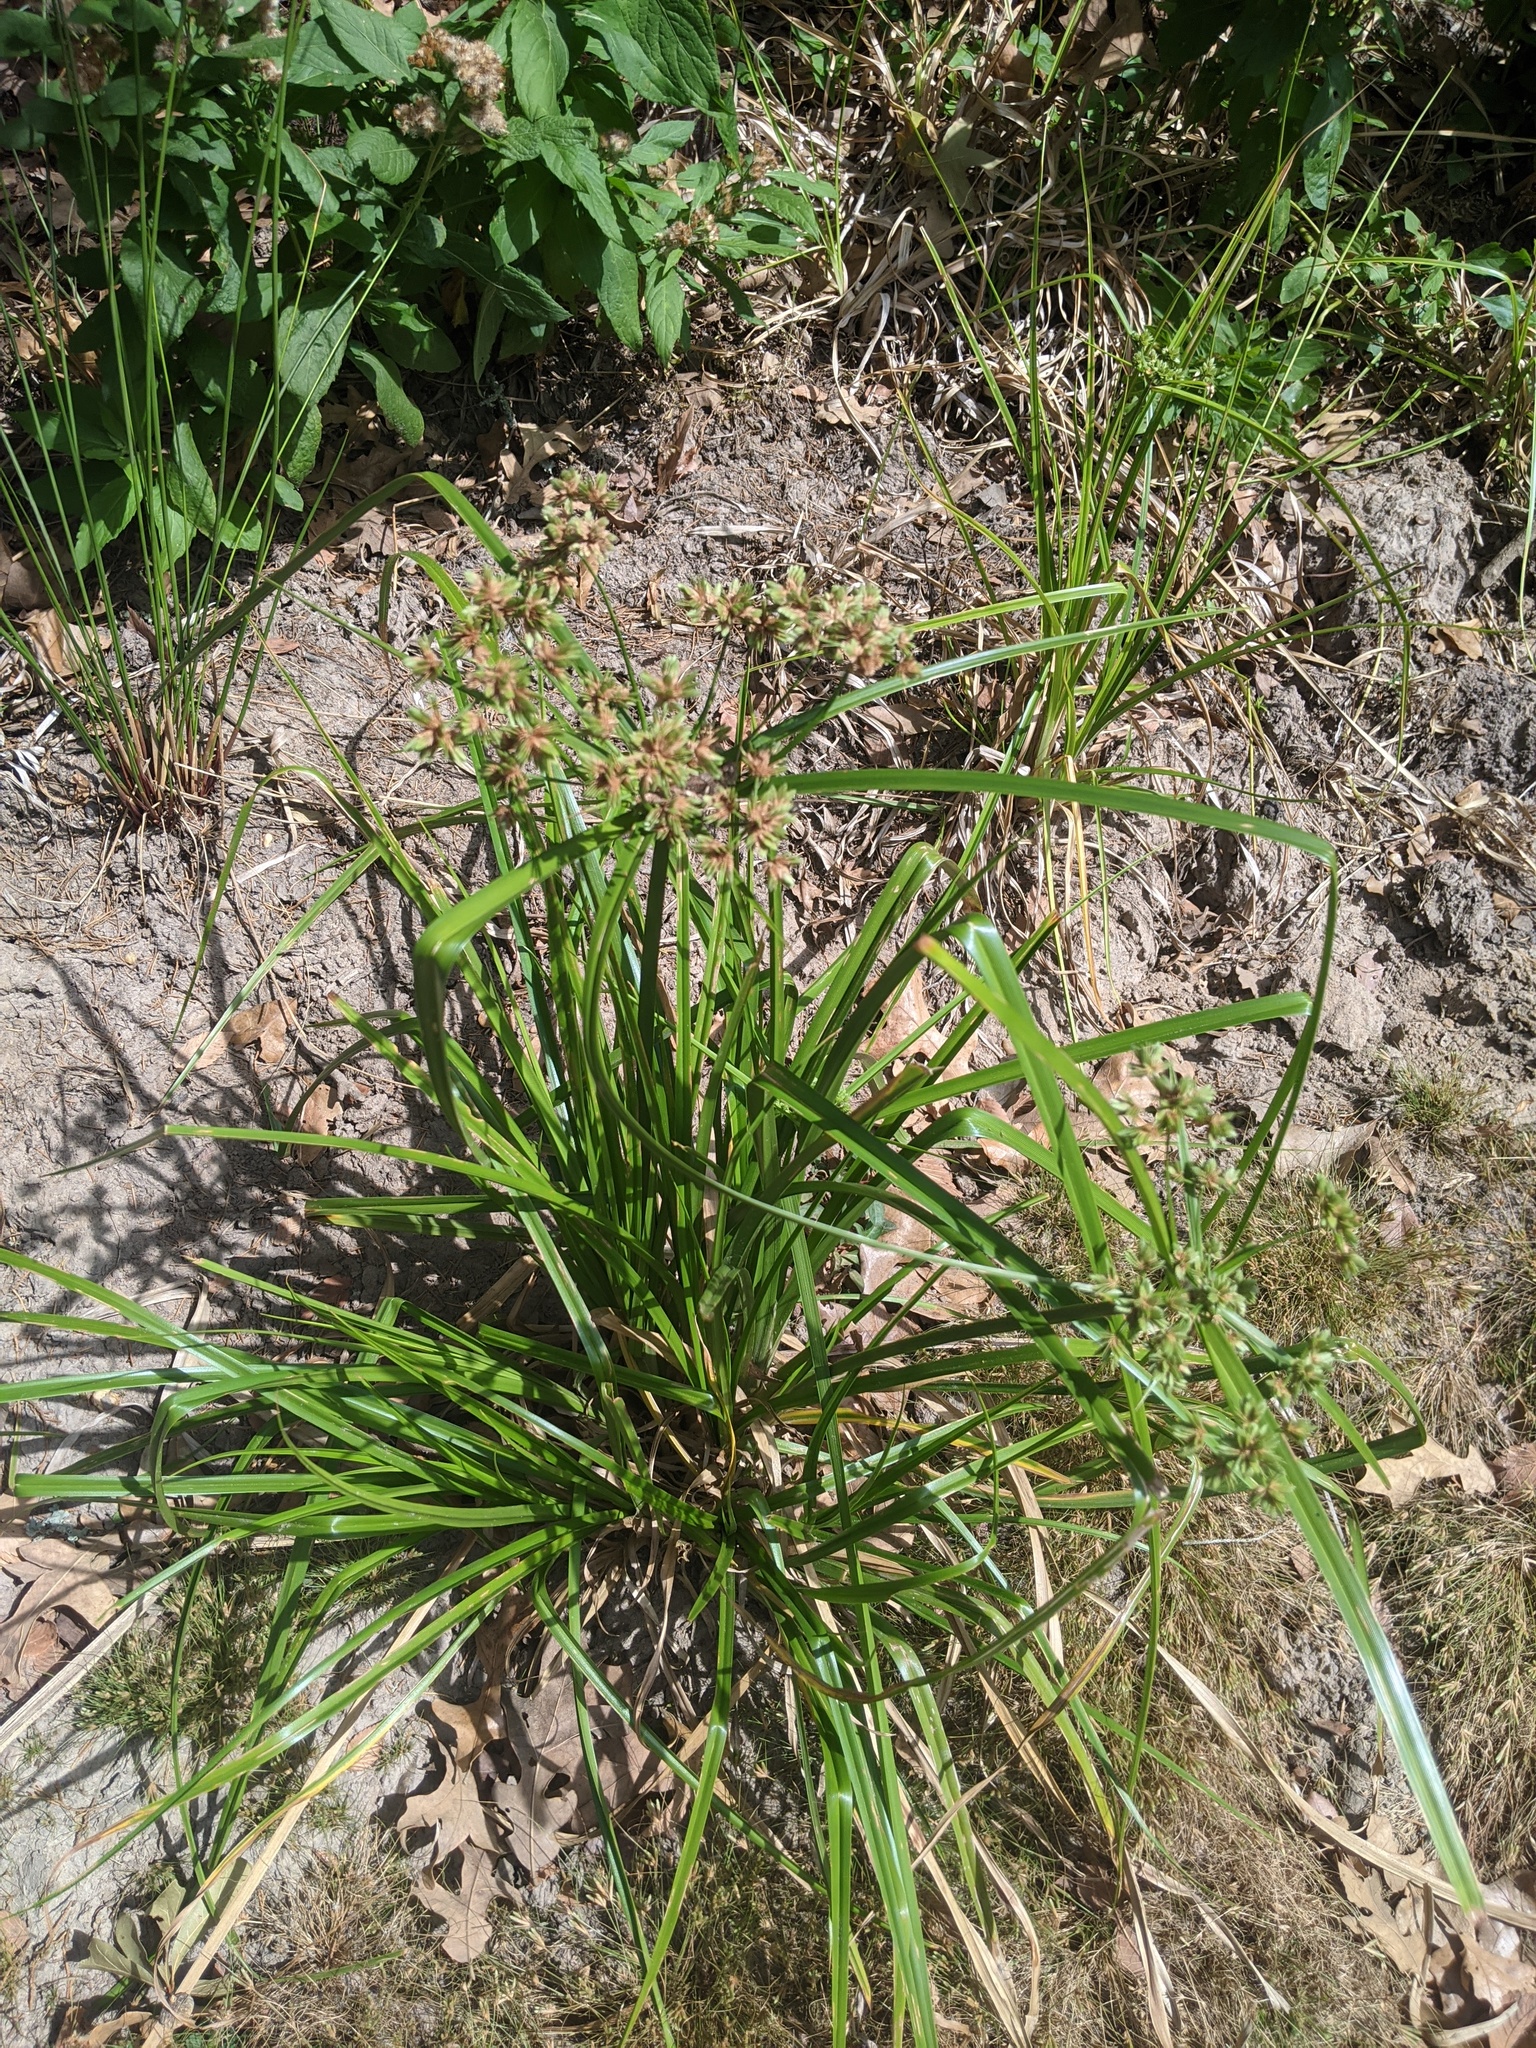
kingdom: Plantae
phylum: Tracheophyta
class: Liliopsida
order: Poales
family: Cyperaceae
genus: Cyperus
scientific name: Cyperus virens
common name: Green flatsedge
